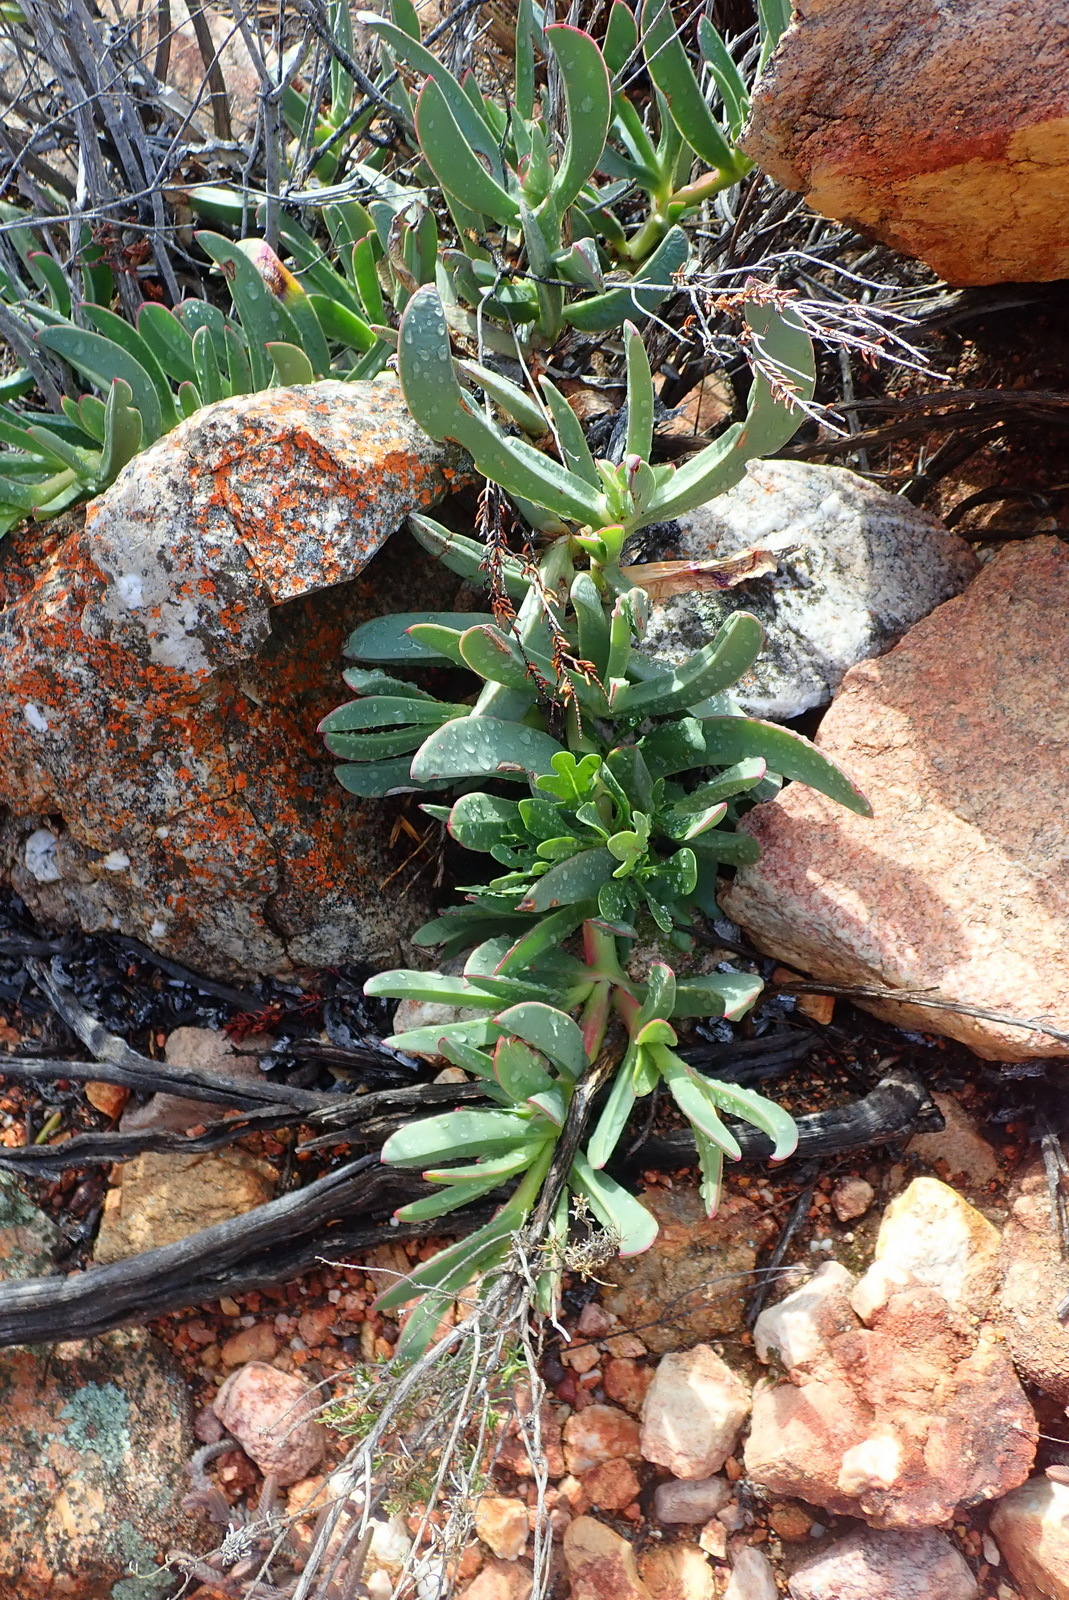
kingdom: Plantae
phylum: Tracheophyta
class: Magnoliopsida
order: Caryophyllales
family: Aizoaceae
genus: Carpobrotus
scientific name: Carpobrotus mellei
